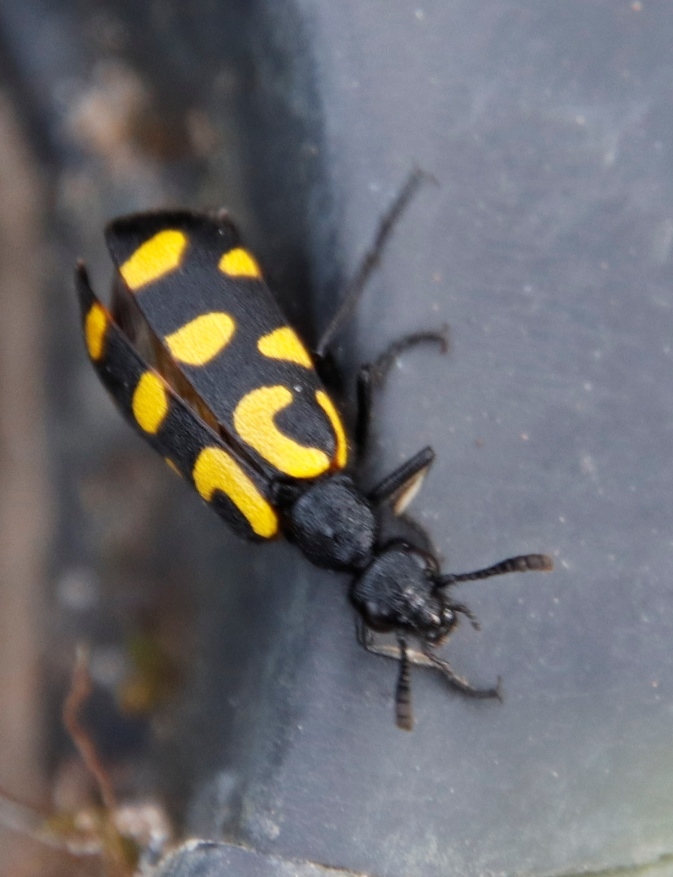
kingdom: Animalia
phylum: Arthropoda
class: Insecta
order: Coleoptera
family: Meloidae
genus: Ceroctis
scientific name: Ceroctis capensis
